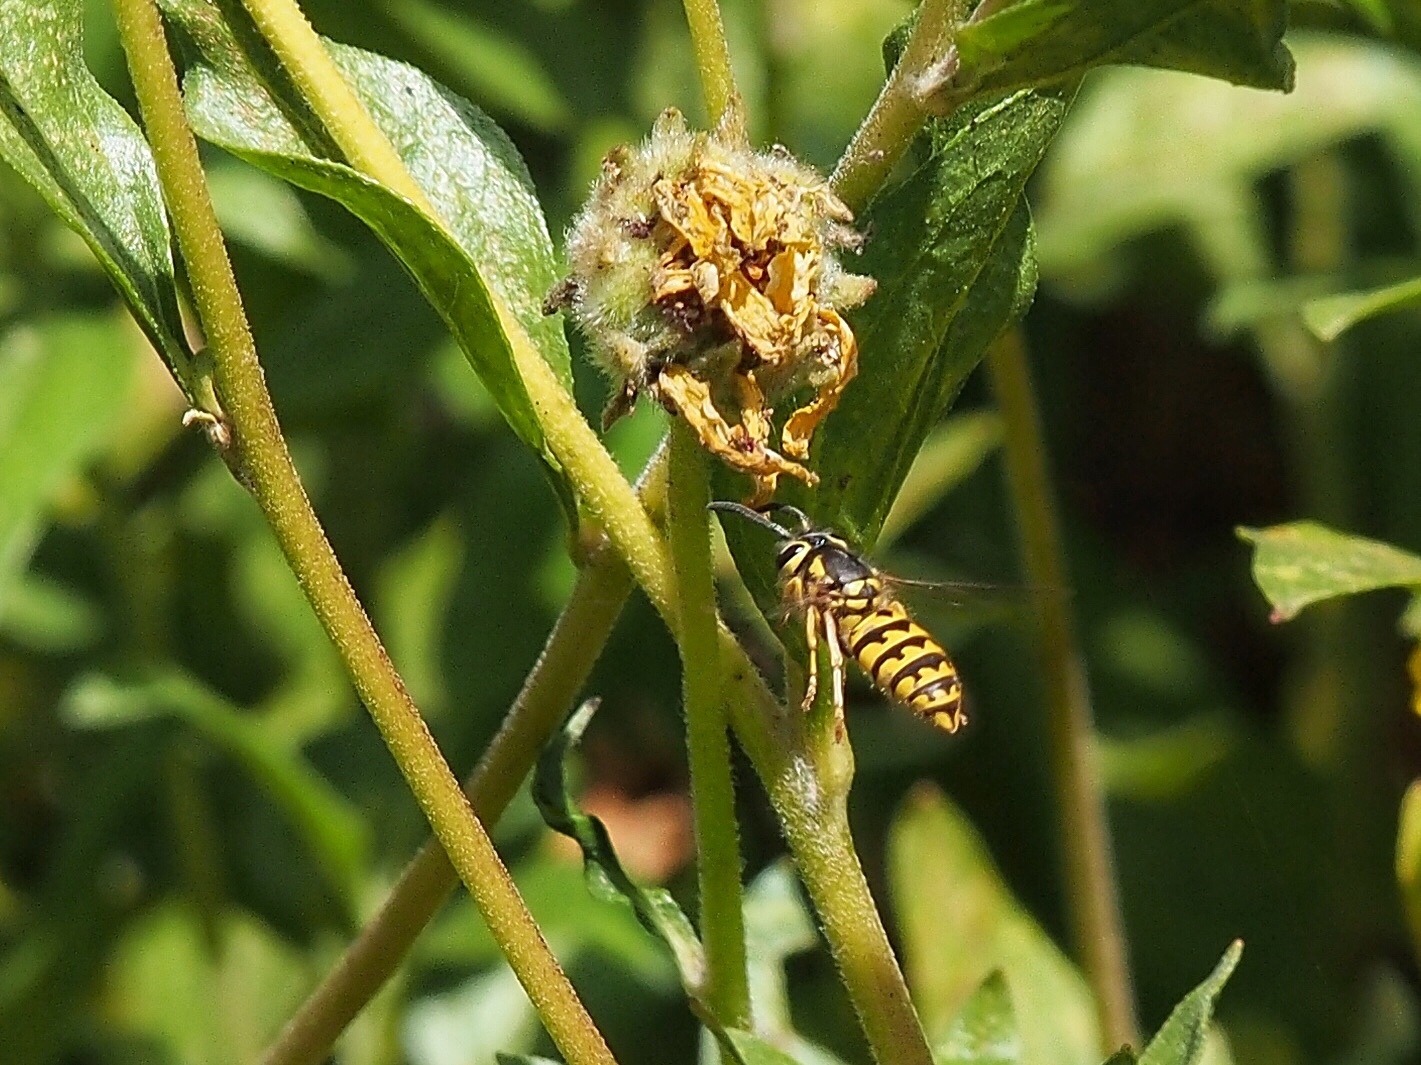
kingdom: Animalia
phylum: Arthropoda
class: Insecta
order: Hymenoptera
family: Vespidae
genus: Vespula
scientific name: Vespula pensylvanica
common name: Western yellowjacket
